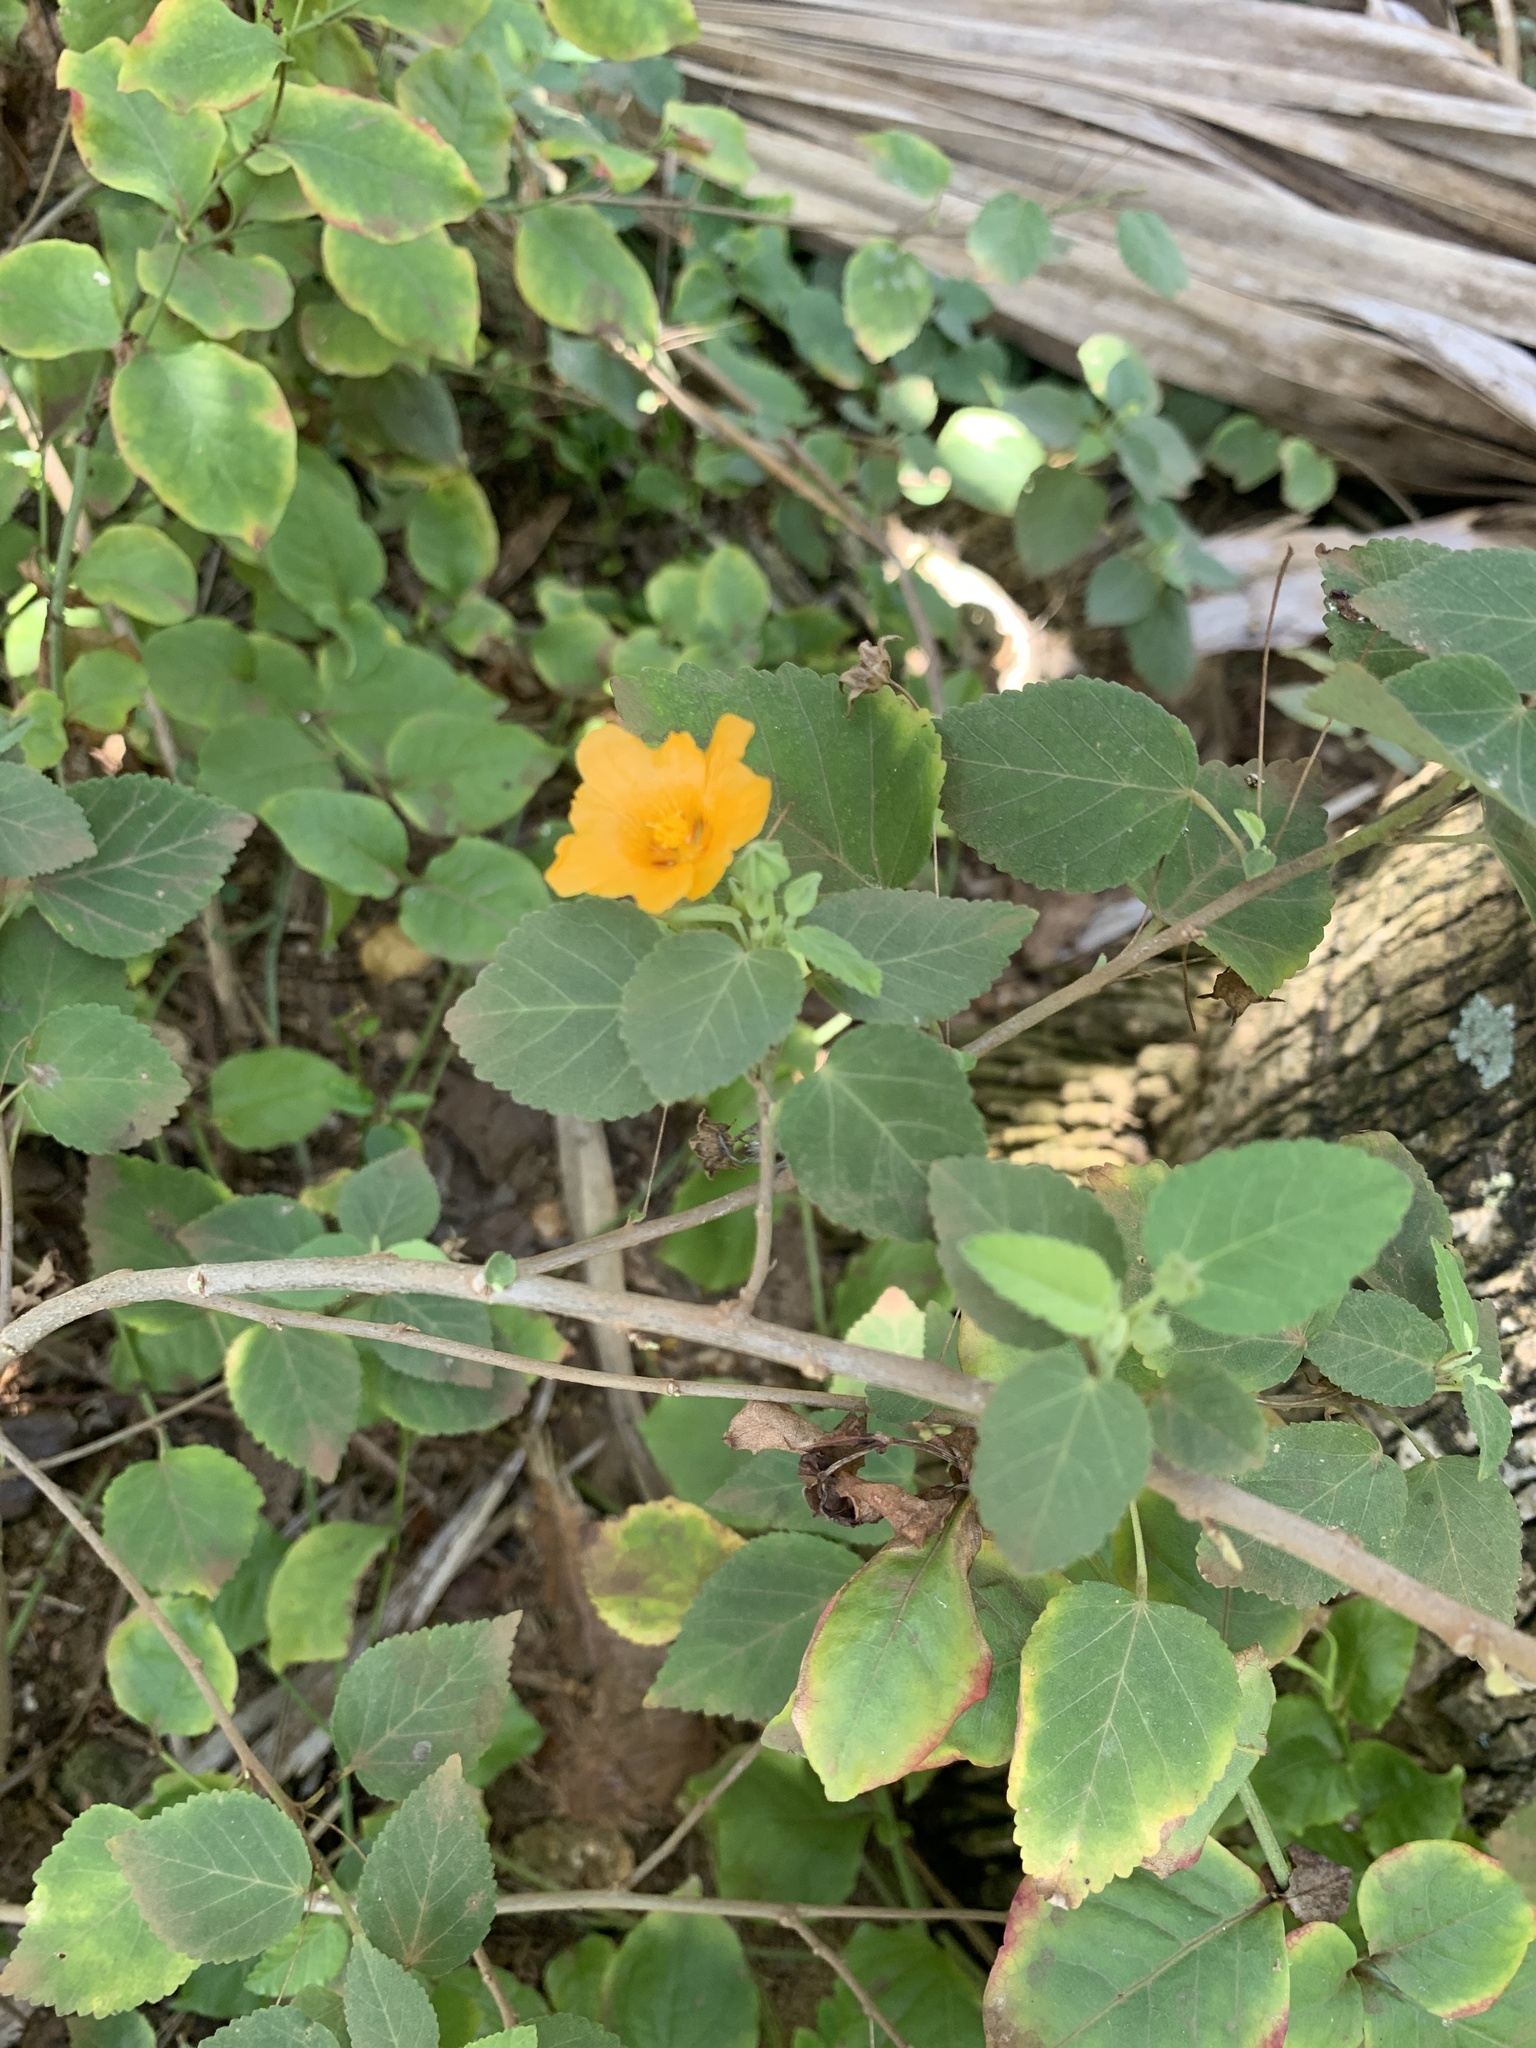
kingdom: Plantae
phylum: Tracheophyta
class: Magnoliopsida
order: Malvales
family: Malvaceae
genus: Sida
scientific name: Sida fallax
